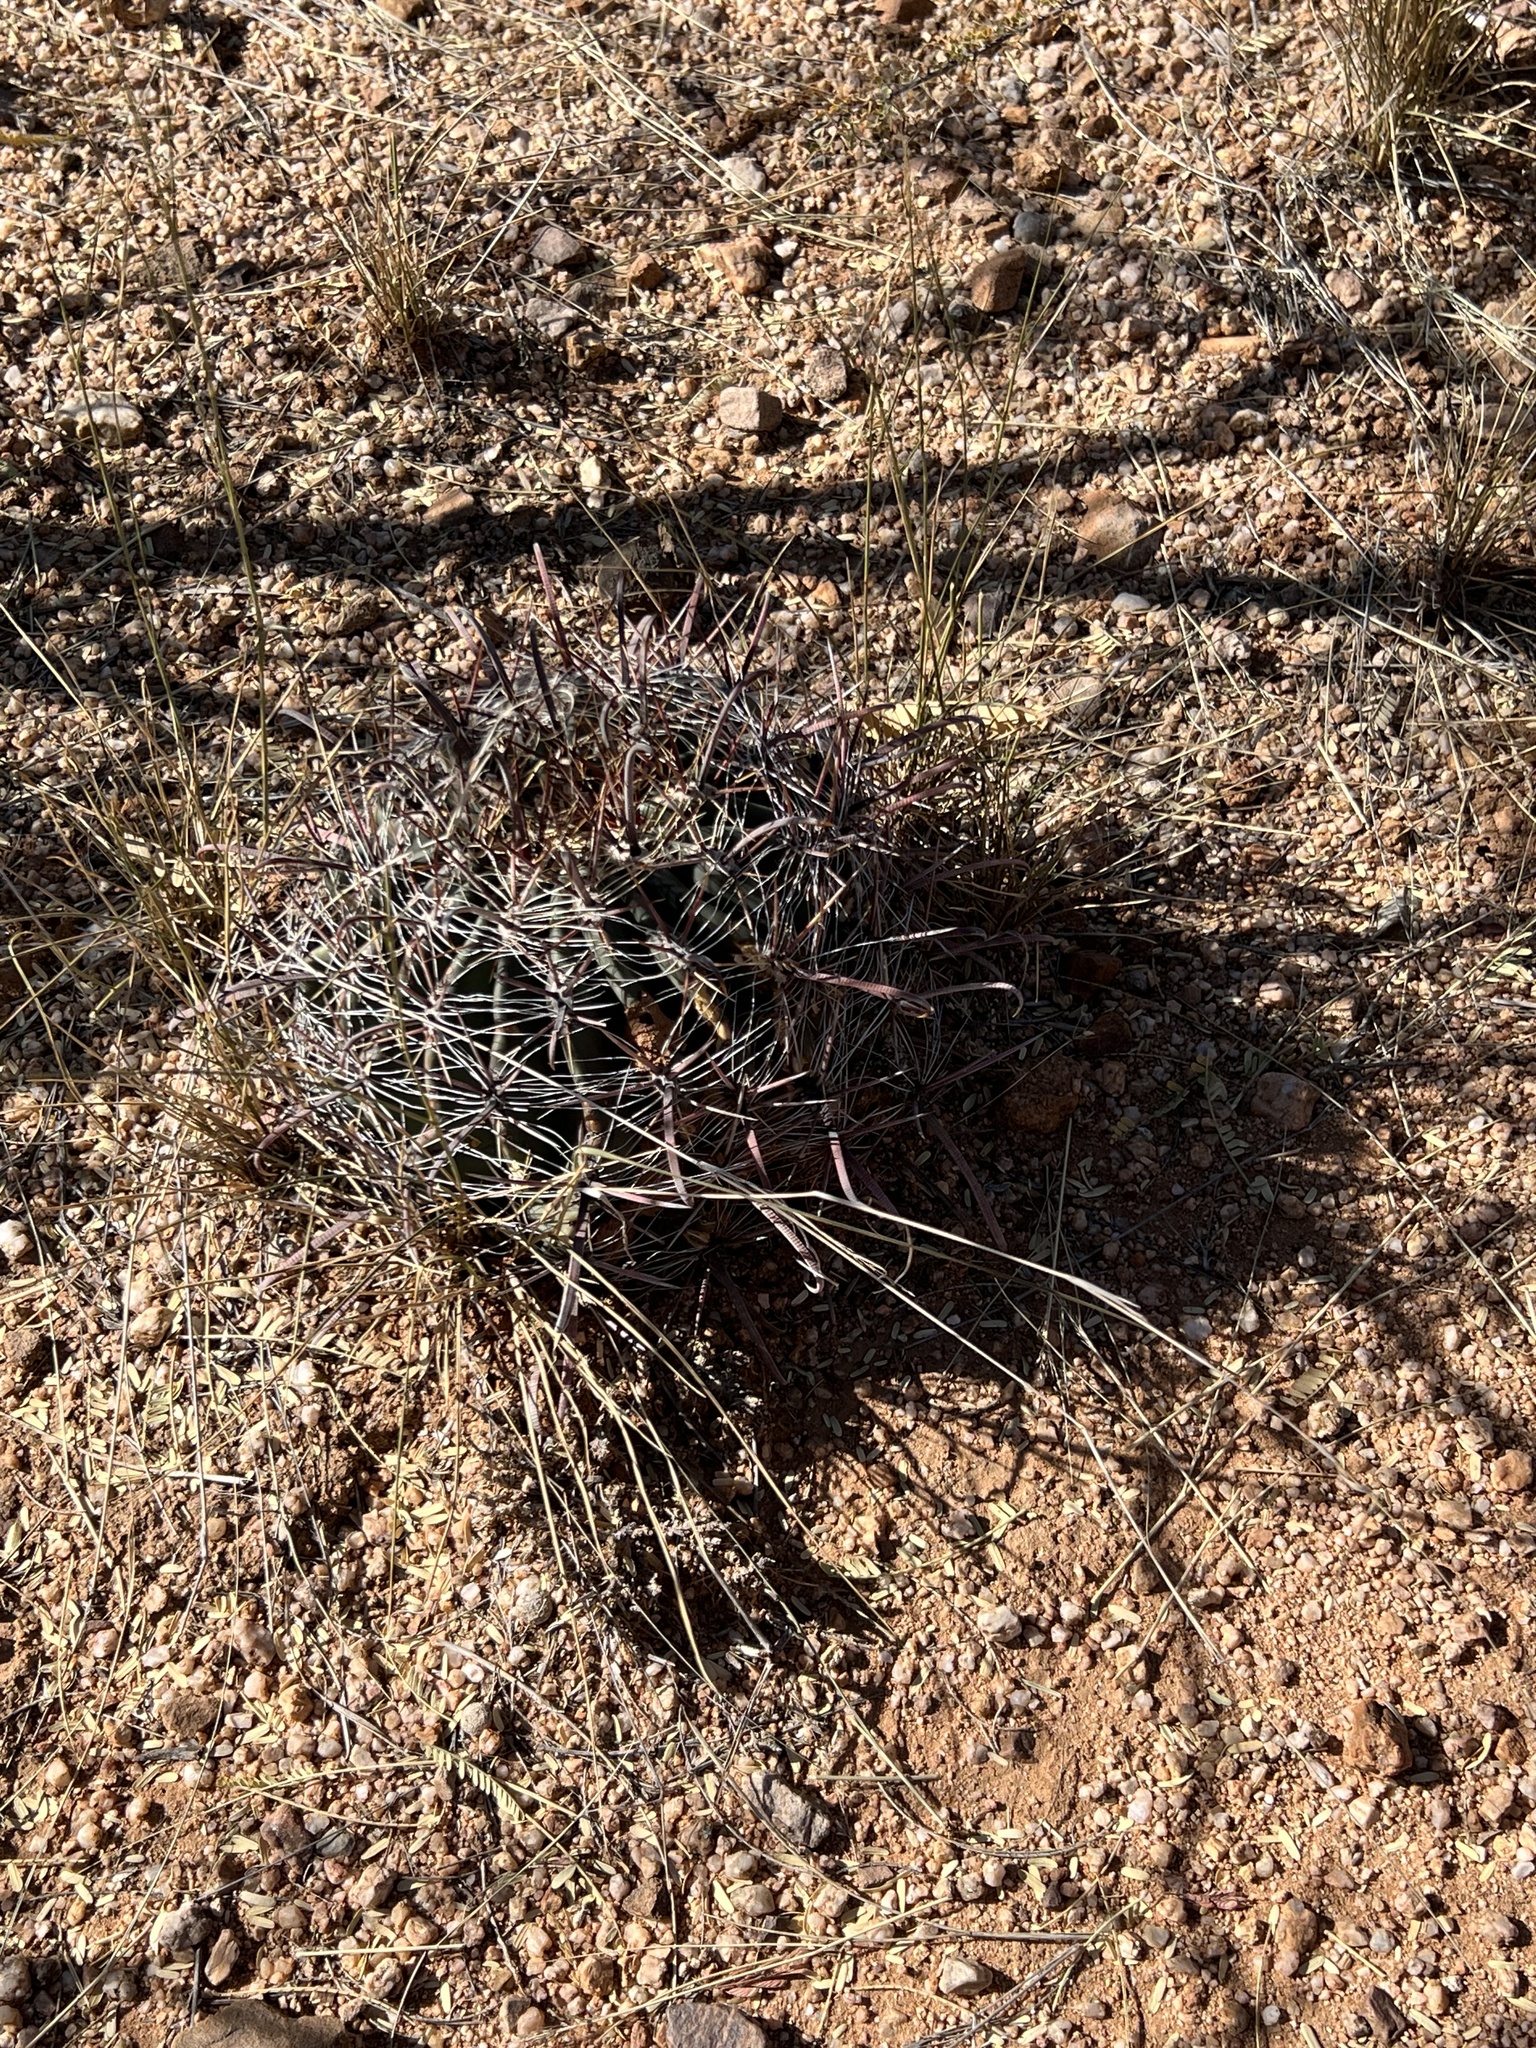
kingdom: Plantae
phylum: Tracheophyta
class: Magnoliopsida
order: Caryophyllales
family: Cactaceae
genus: Ferocactus
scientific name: Ferocactus wislizeni
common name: Candy barrel cactus
